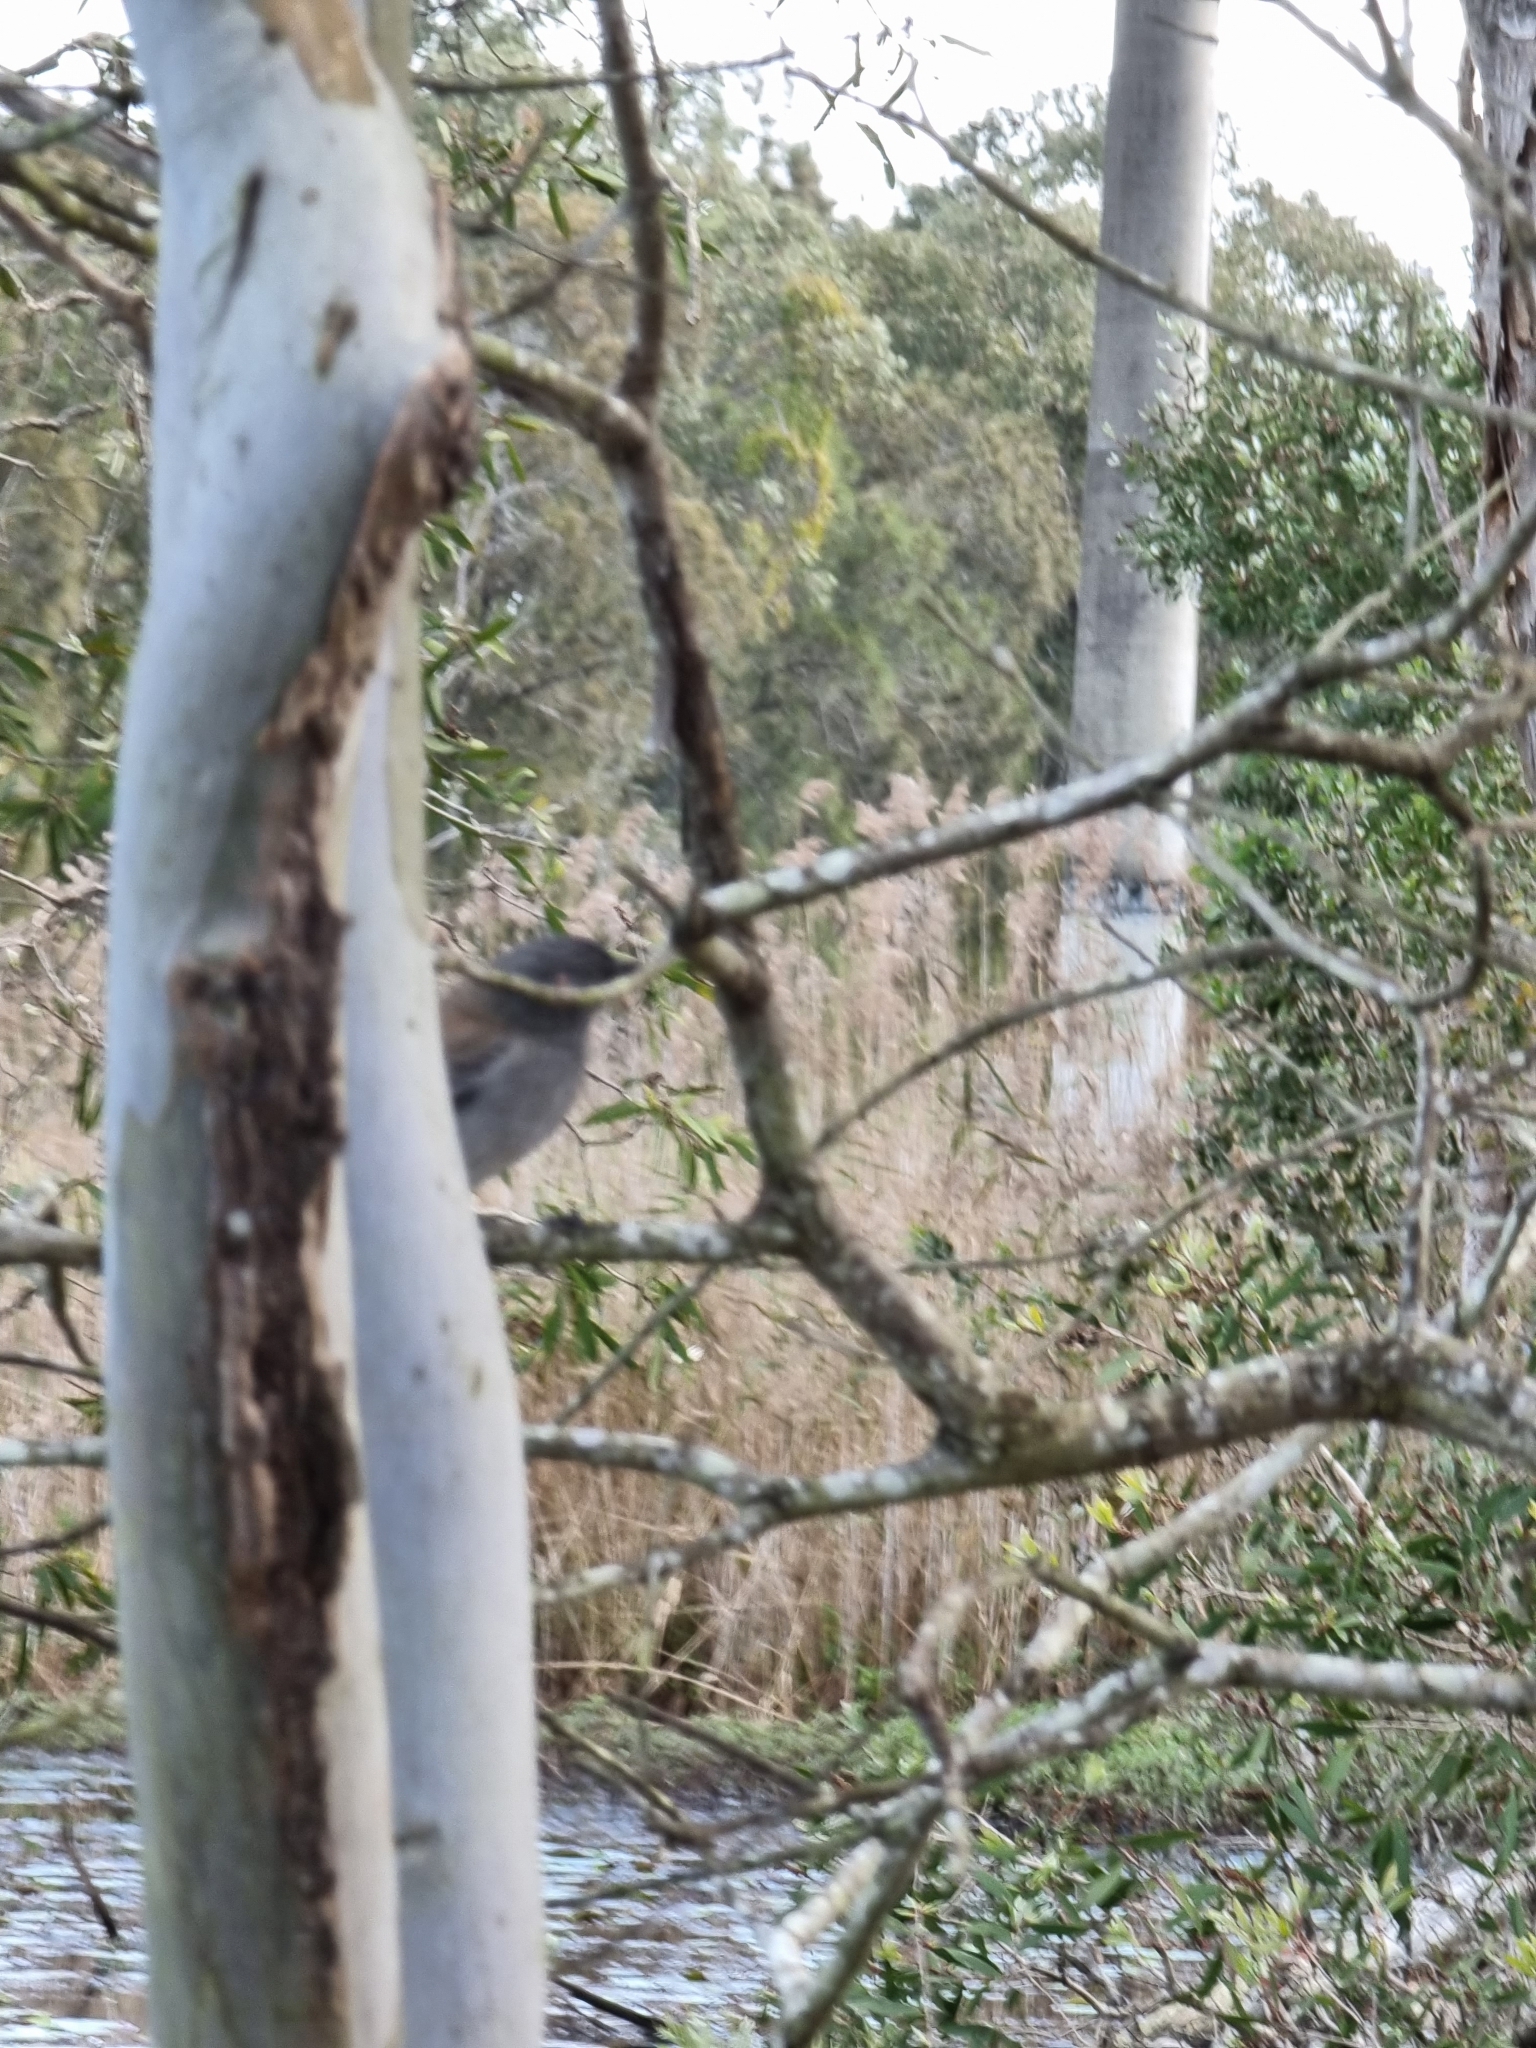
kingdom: Animalia
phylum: Chordata
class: Aves
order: Passeriformes
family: Pachycephalidae
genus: Colluricincla
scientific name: Colluricincla harmonica
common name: Grey shrikethrush
